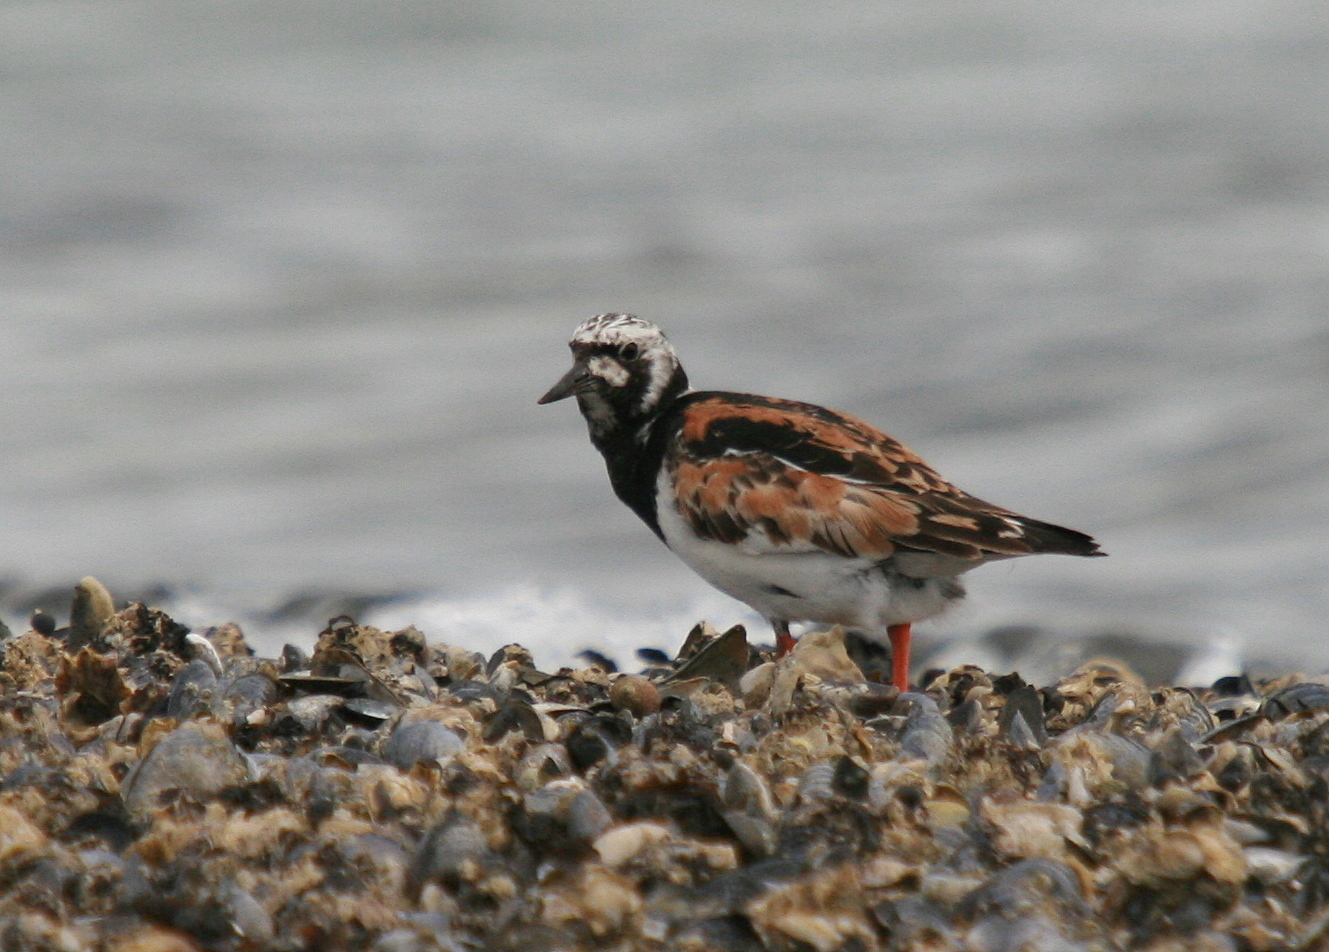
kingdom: Animalia
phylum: Chordata
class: Aves
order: Charadriiformes
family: Scolopacidae
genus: Arenaria
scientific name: Arenaria interpres
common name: Ruddy turnstone
